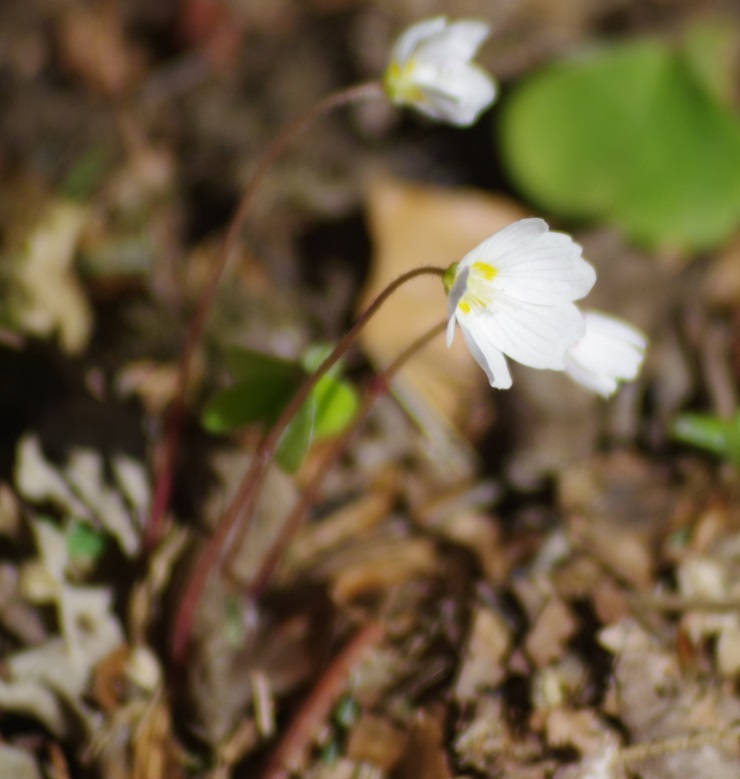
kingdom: Plantae
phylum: Tracheophyta
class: Magnoliopsida
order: Oxalidales
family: Oxalidaceae
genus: Oxalis
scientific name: Oxalis acetosella
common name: Wood-sorrel
